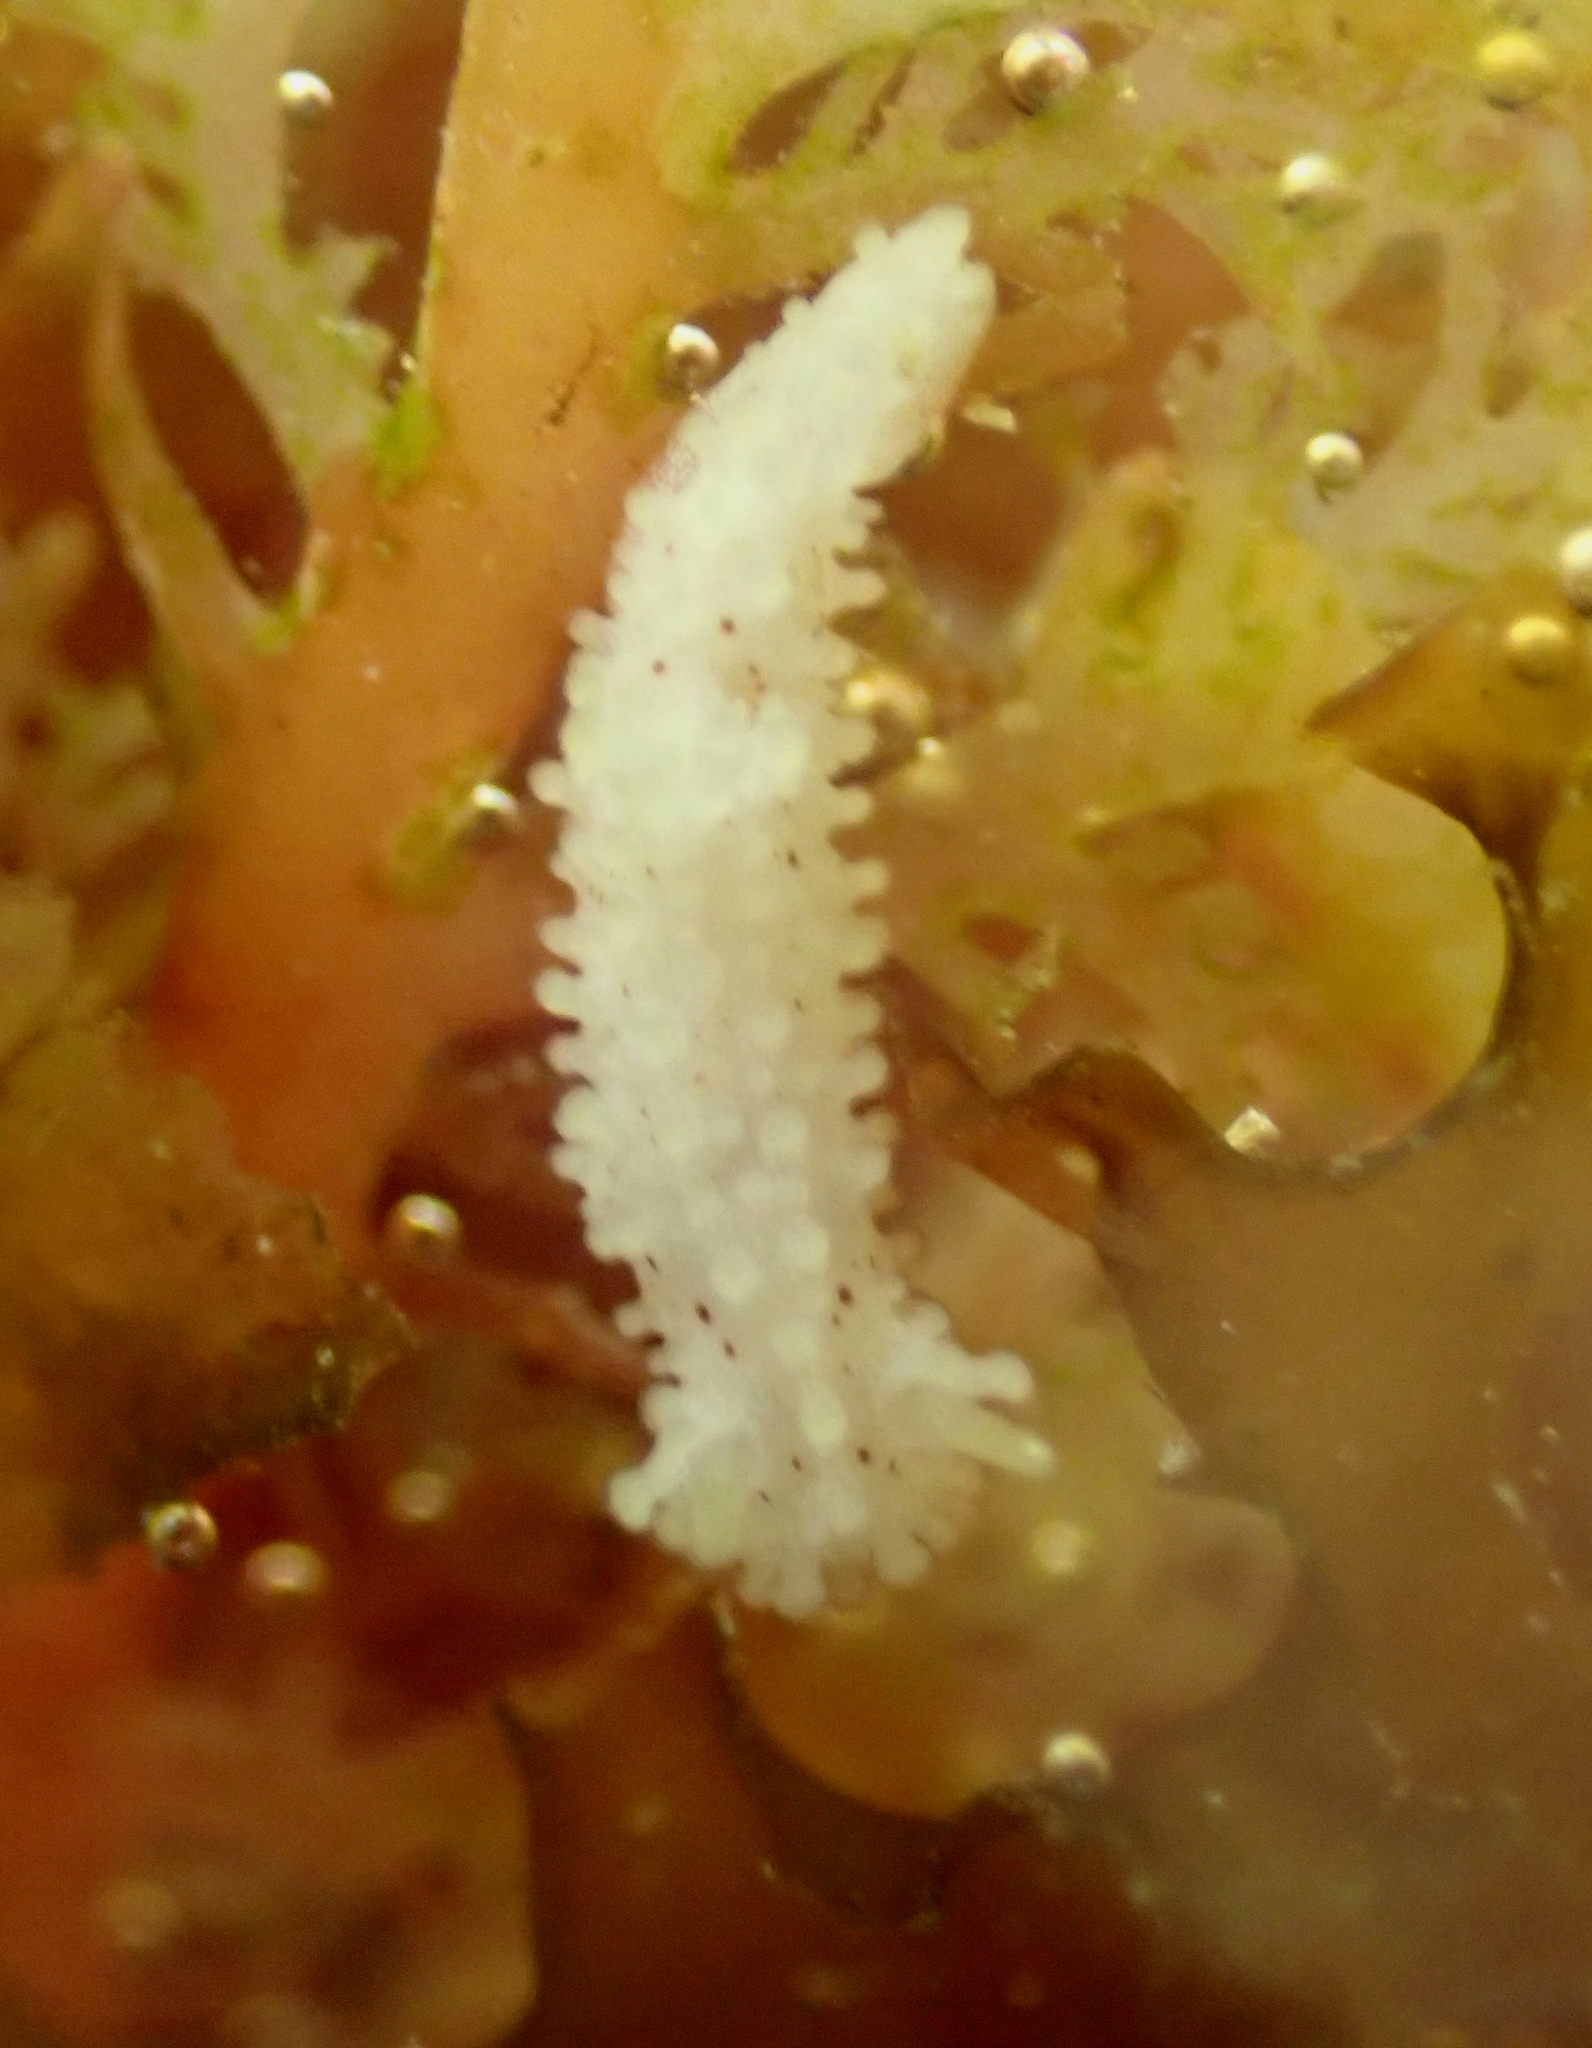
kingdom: Animalia
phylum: Mollusca
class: Gastropoda
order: Nudibranchia
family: Aegiridae
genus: Aegires
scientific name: Aegires albopunctatus
